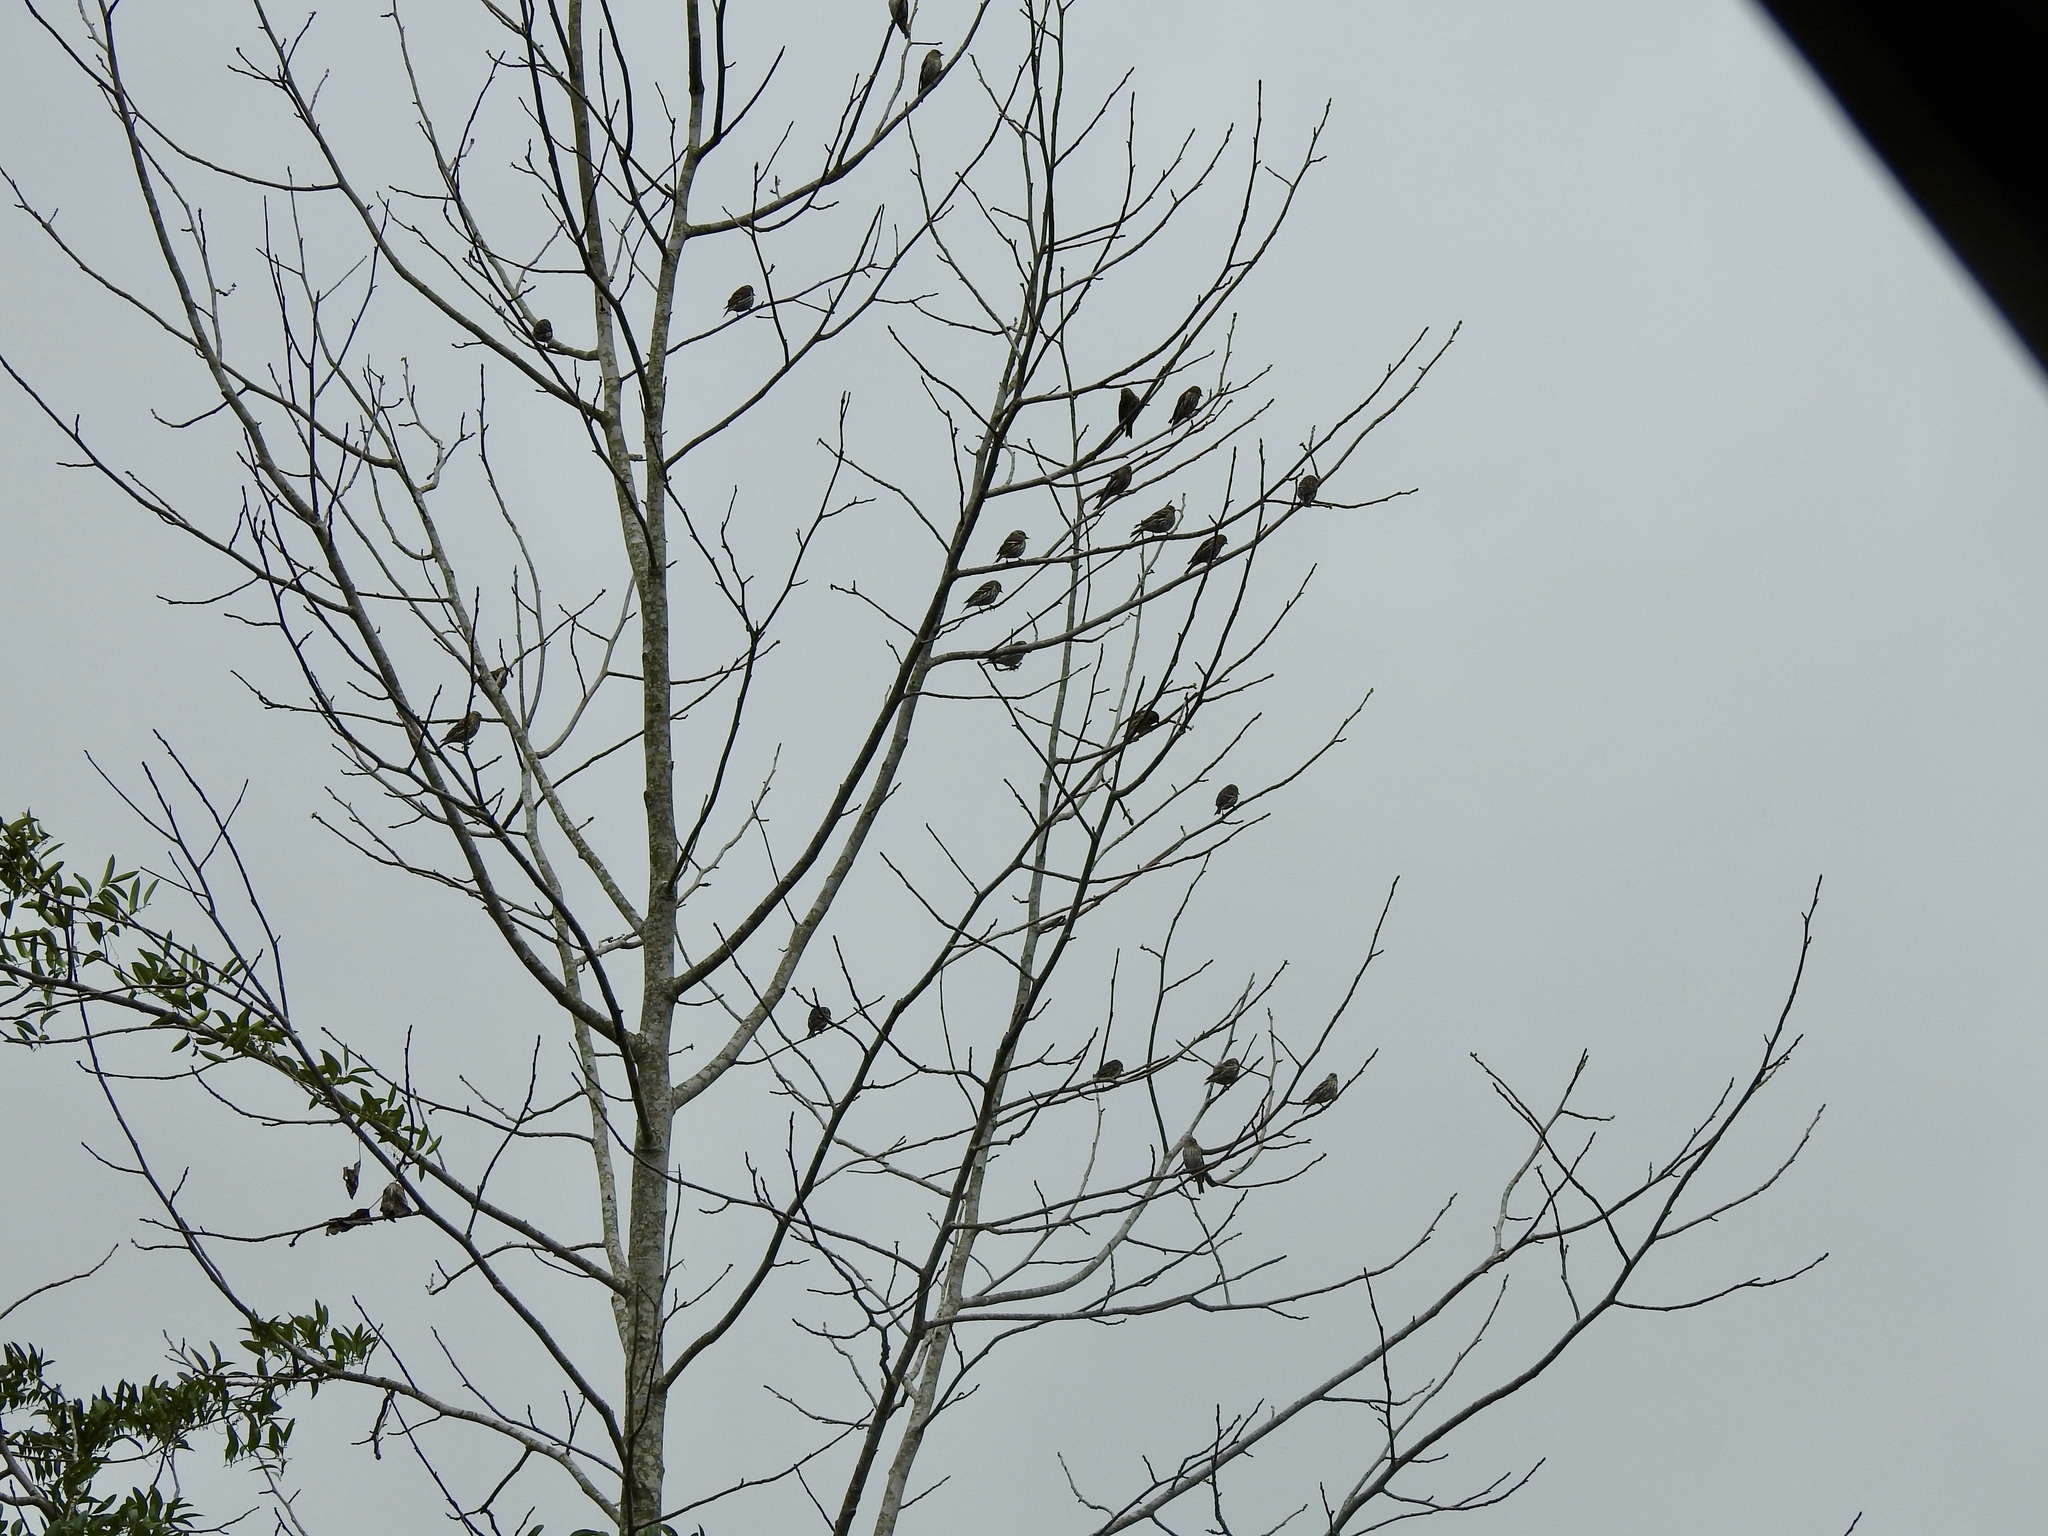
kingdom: Animalia
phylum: Chordata
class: Aves
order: Passeriformes
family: Fringillidae
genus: Spinus
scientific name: Spinus pinus
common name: Pine siskin
